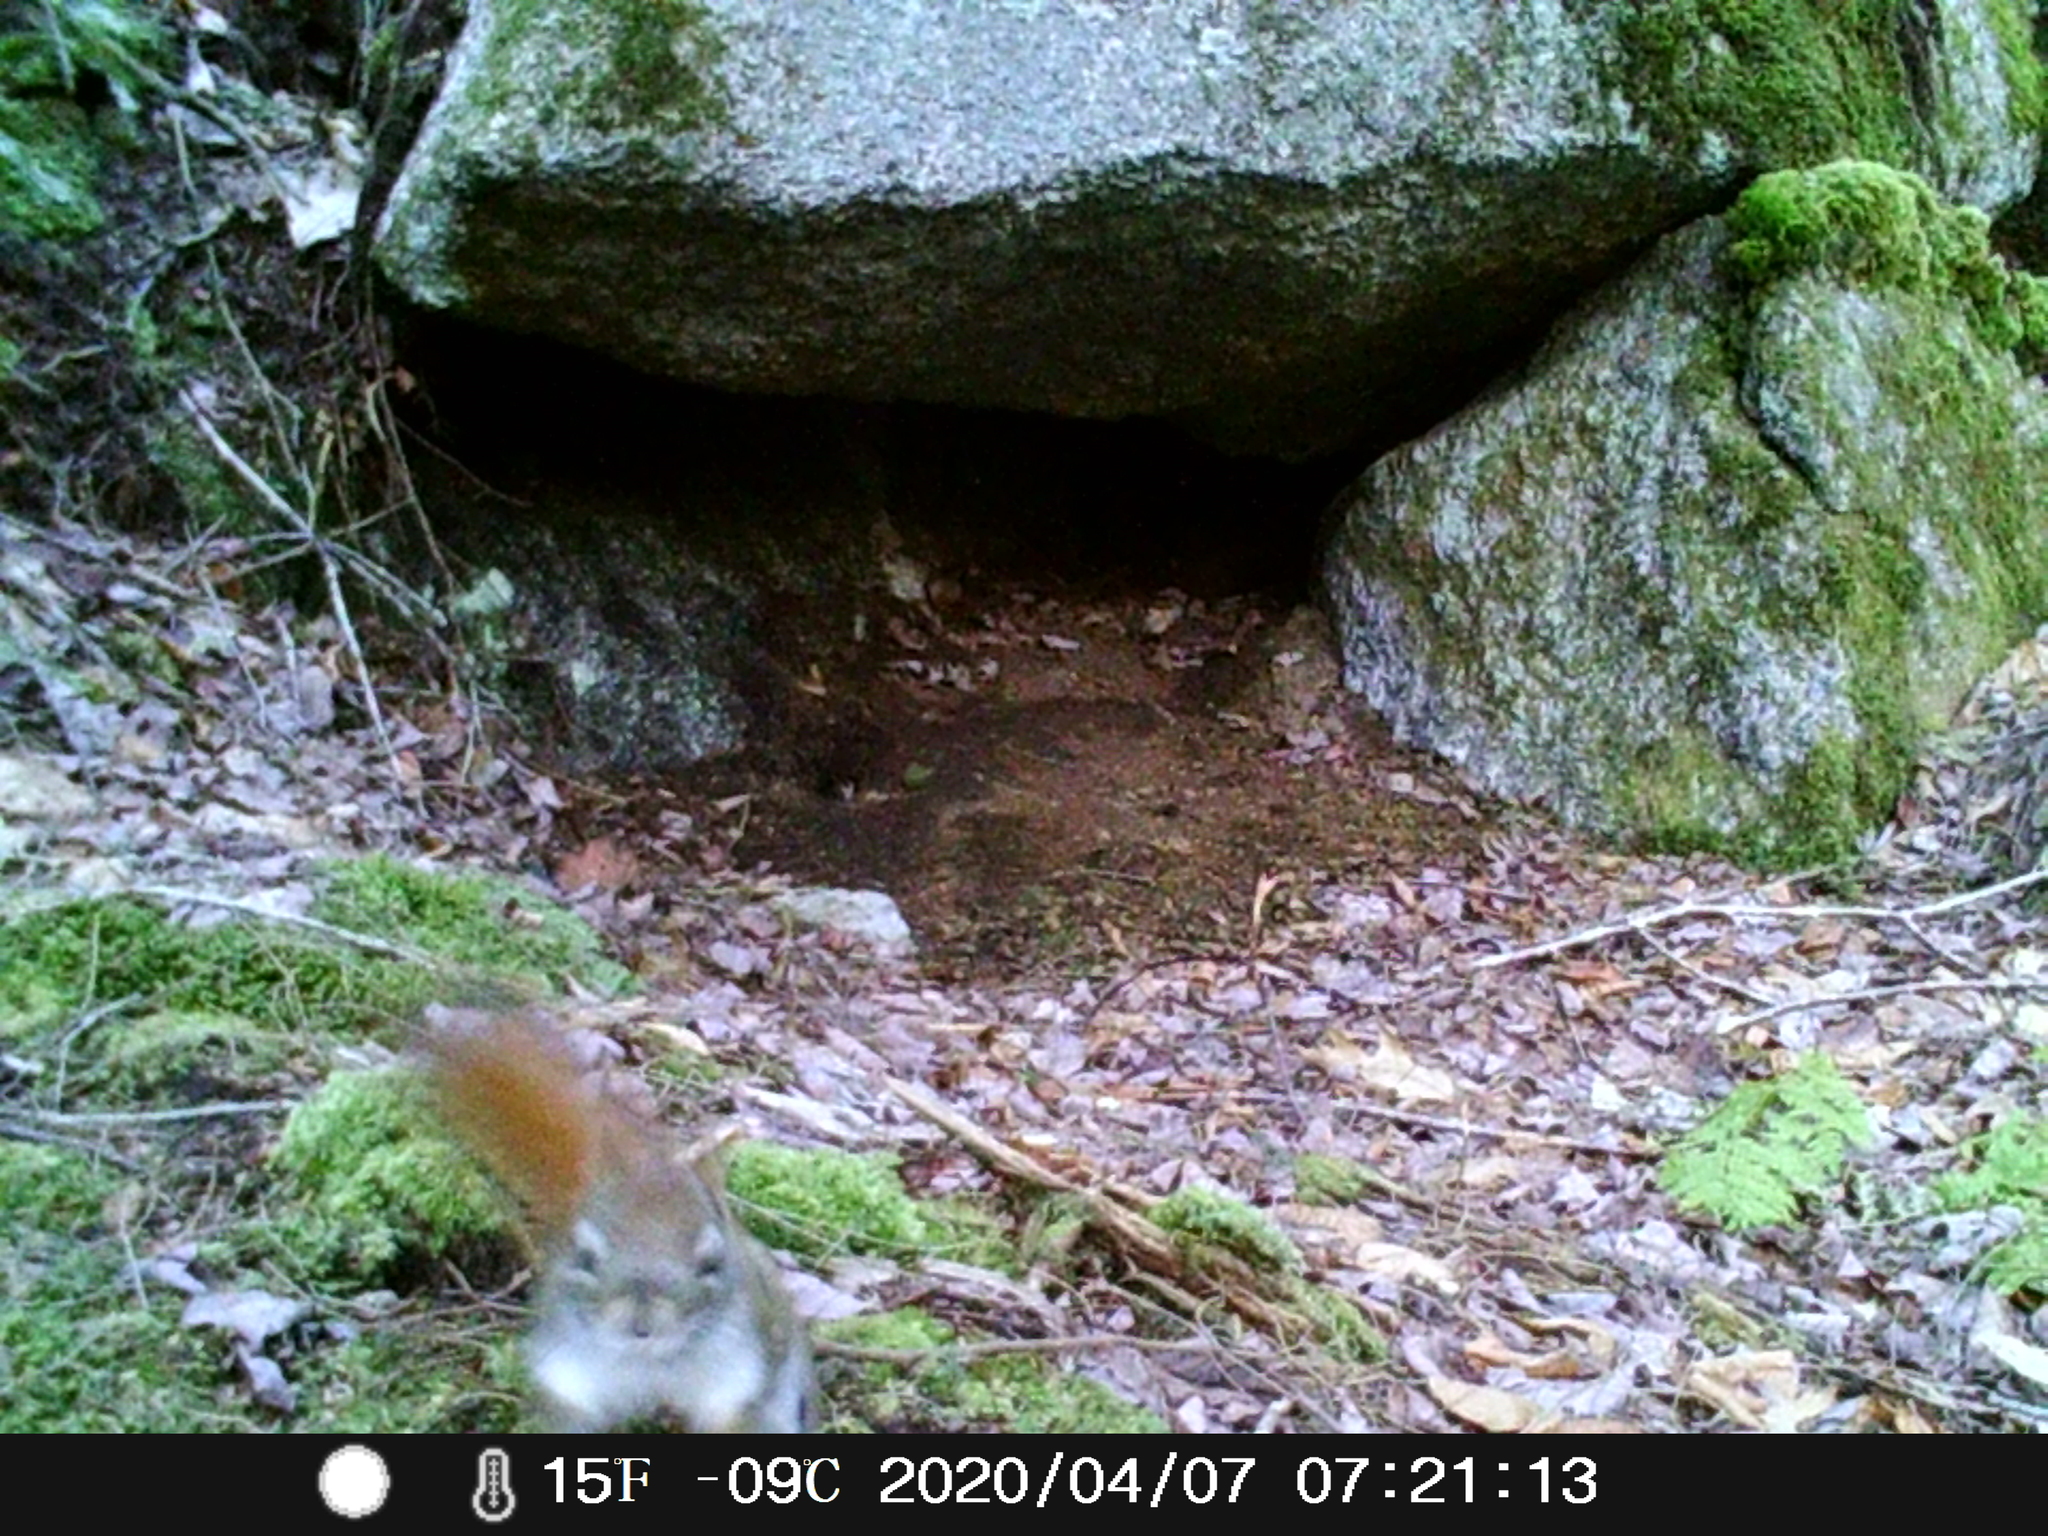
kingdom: Animalia
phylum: Chordata
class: Mammalia
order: Rodentia
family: Sciuridae
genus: Tamiasciurus
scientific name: Tamiasciurus hudsonicus
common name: Red squirrel
